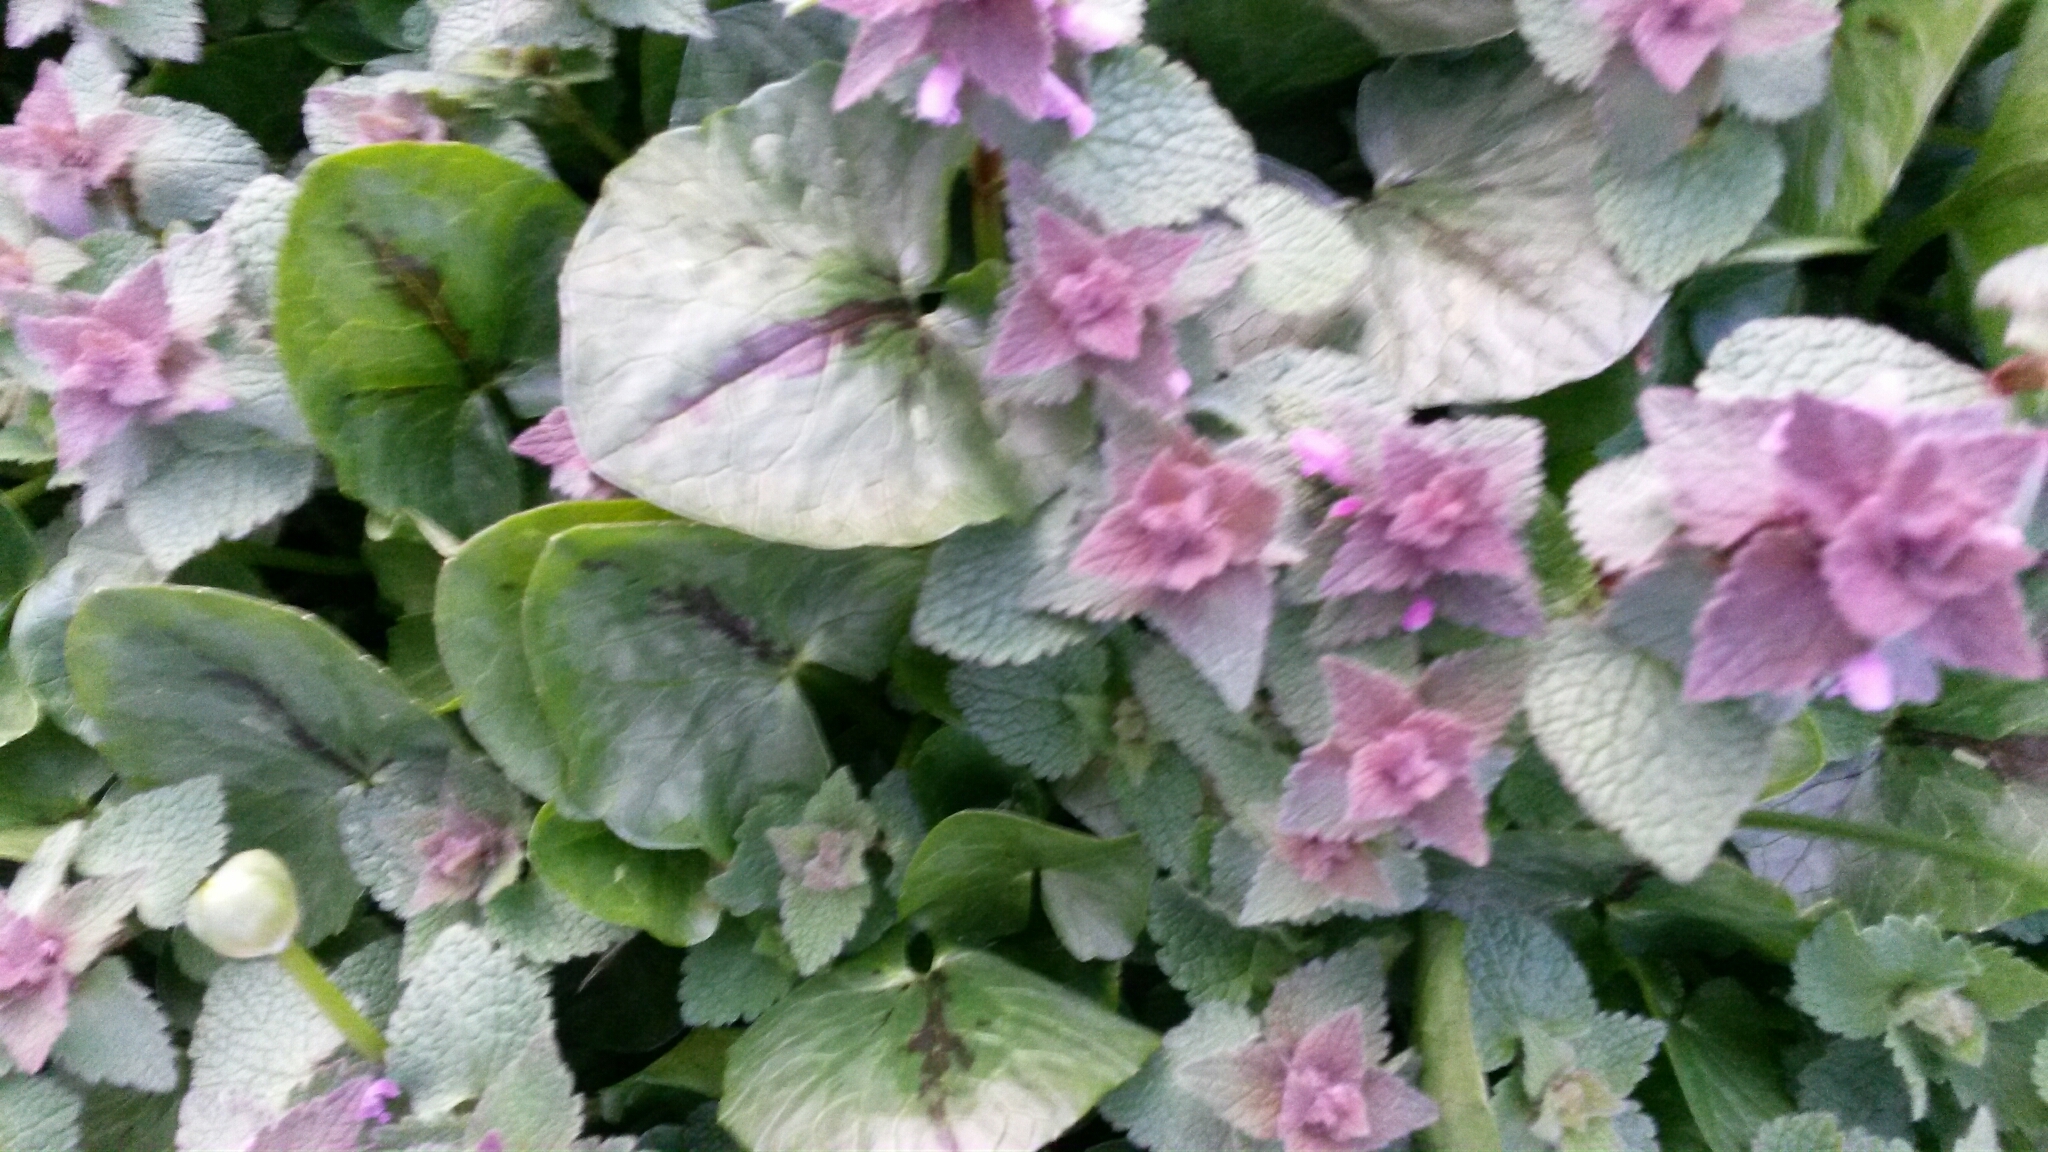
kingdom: Plantae
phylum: Tracheophyta
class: Magnoliopsida
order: Lamiales
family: Lamiaceae
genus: Lamium
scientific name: Lamium purpureum
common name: Red dead-nettle
